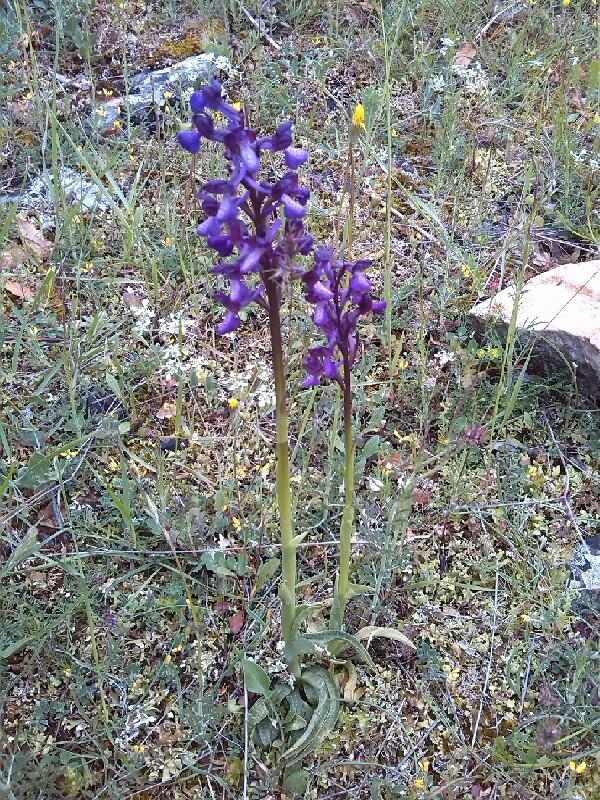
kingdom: Plantae
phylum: Tracheophyta
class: Liliopsida
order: Asparagales
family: Orchidaceae
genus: Anacamptis
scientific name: Anacamptis morio
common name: Green-winged orchid
